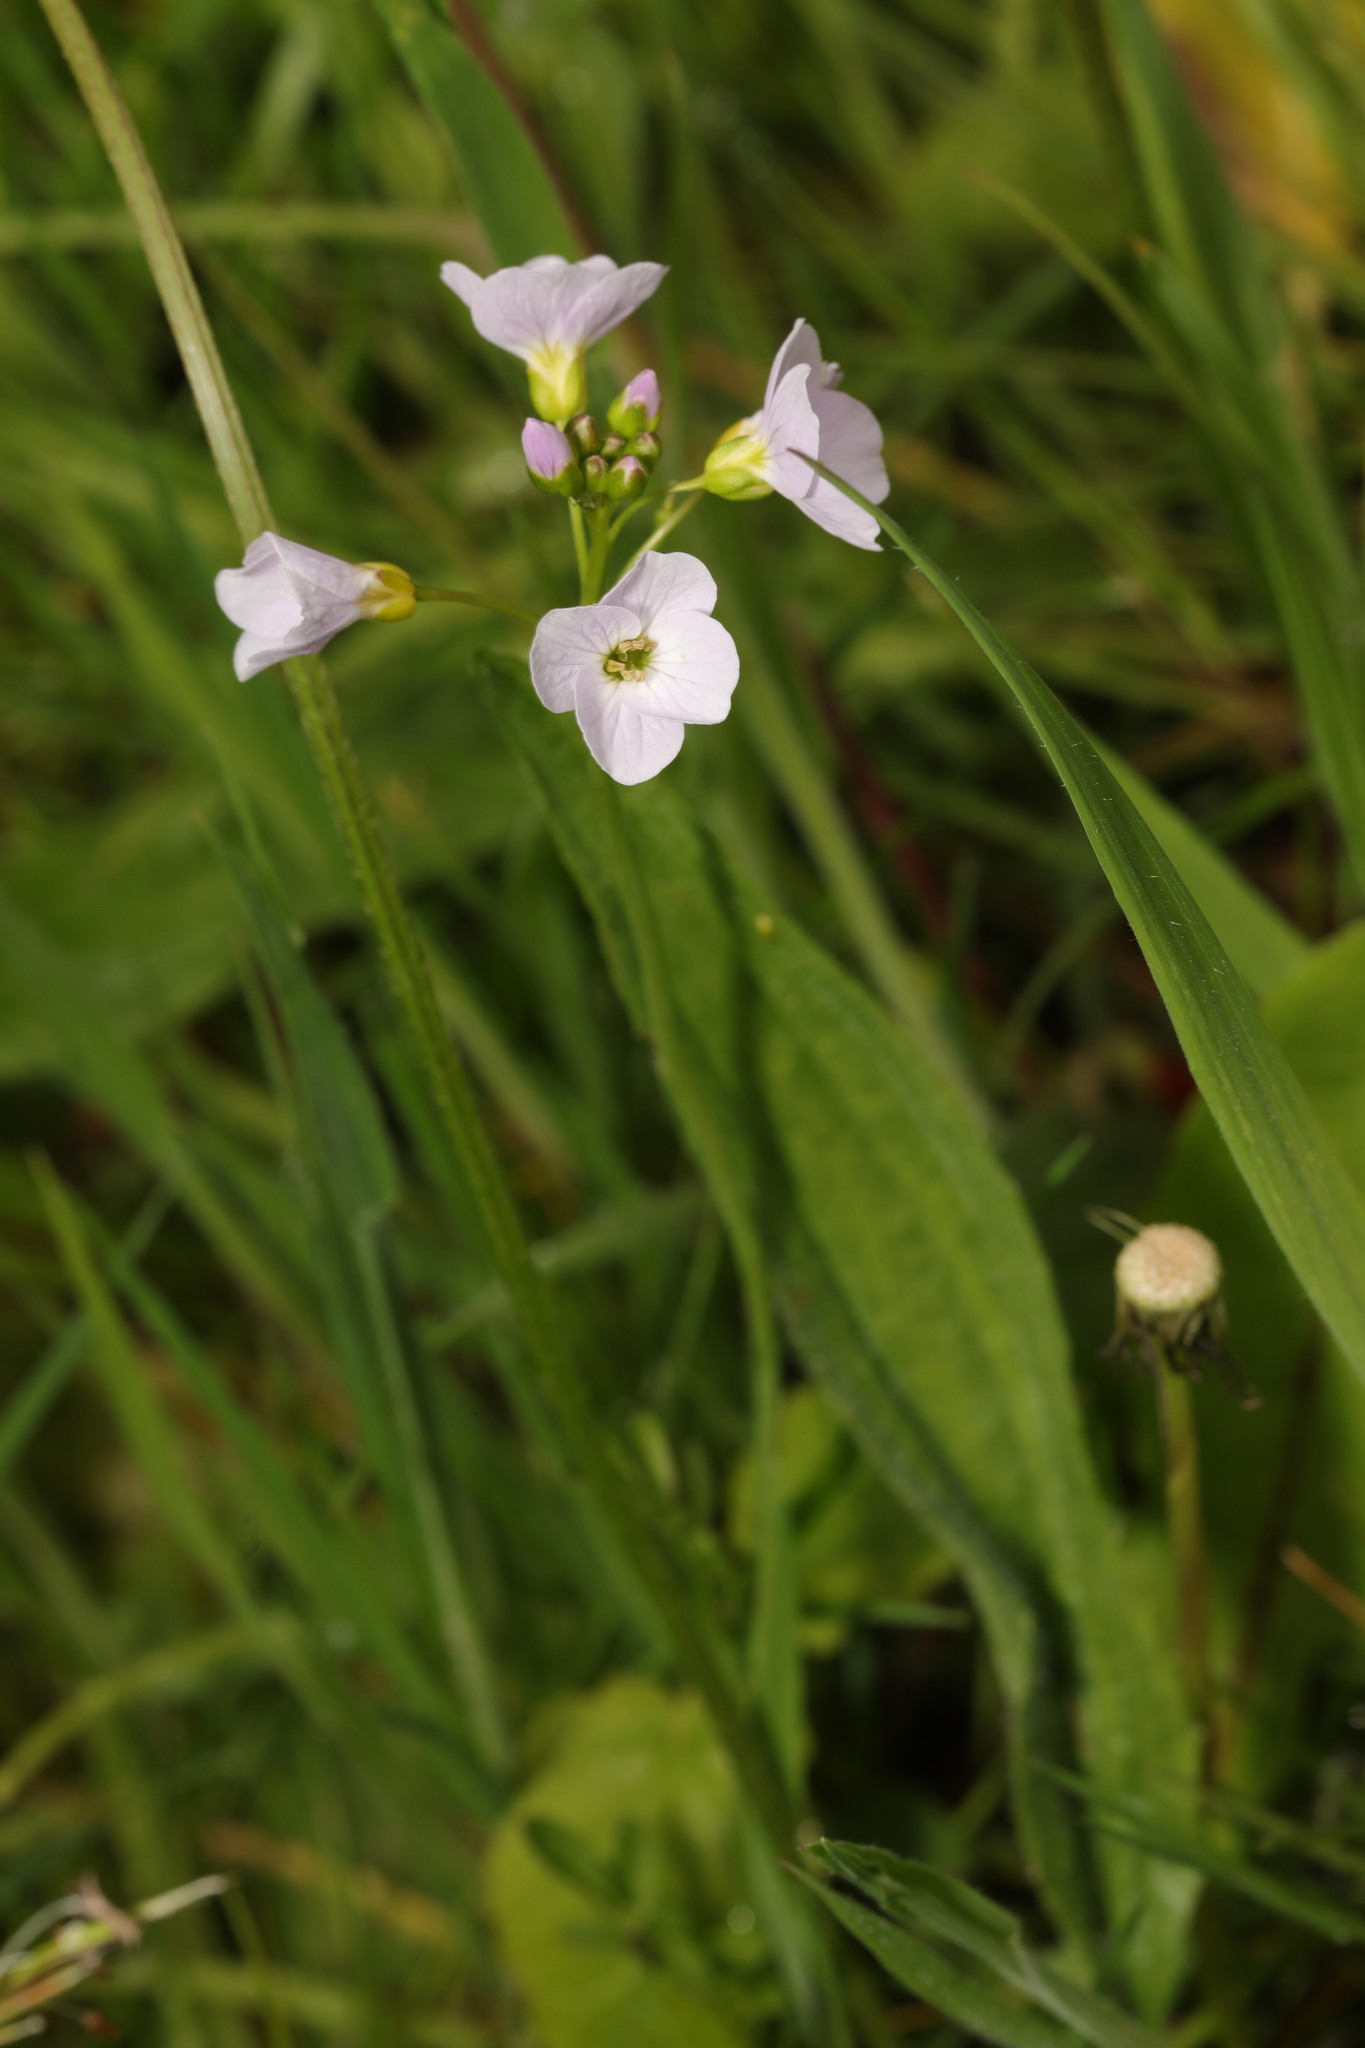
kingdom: Plantae
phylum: Tracheophyta
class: Magnoliopsida
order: Brassicales
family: Brassicaceae
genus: Cardamine
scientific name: Cardamine pratensis
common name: Cuckoo flower
